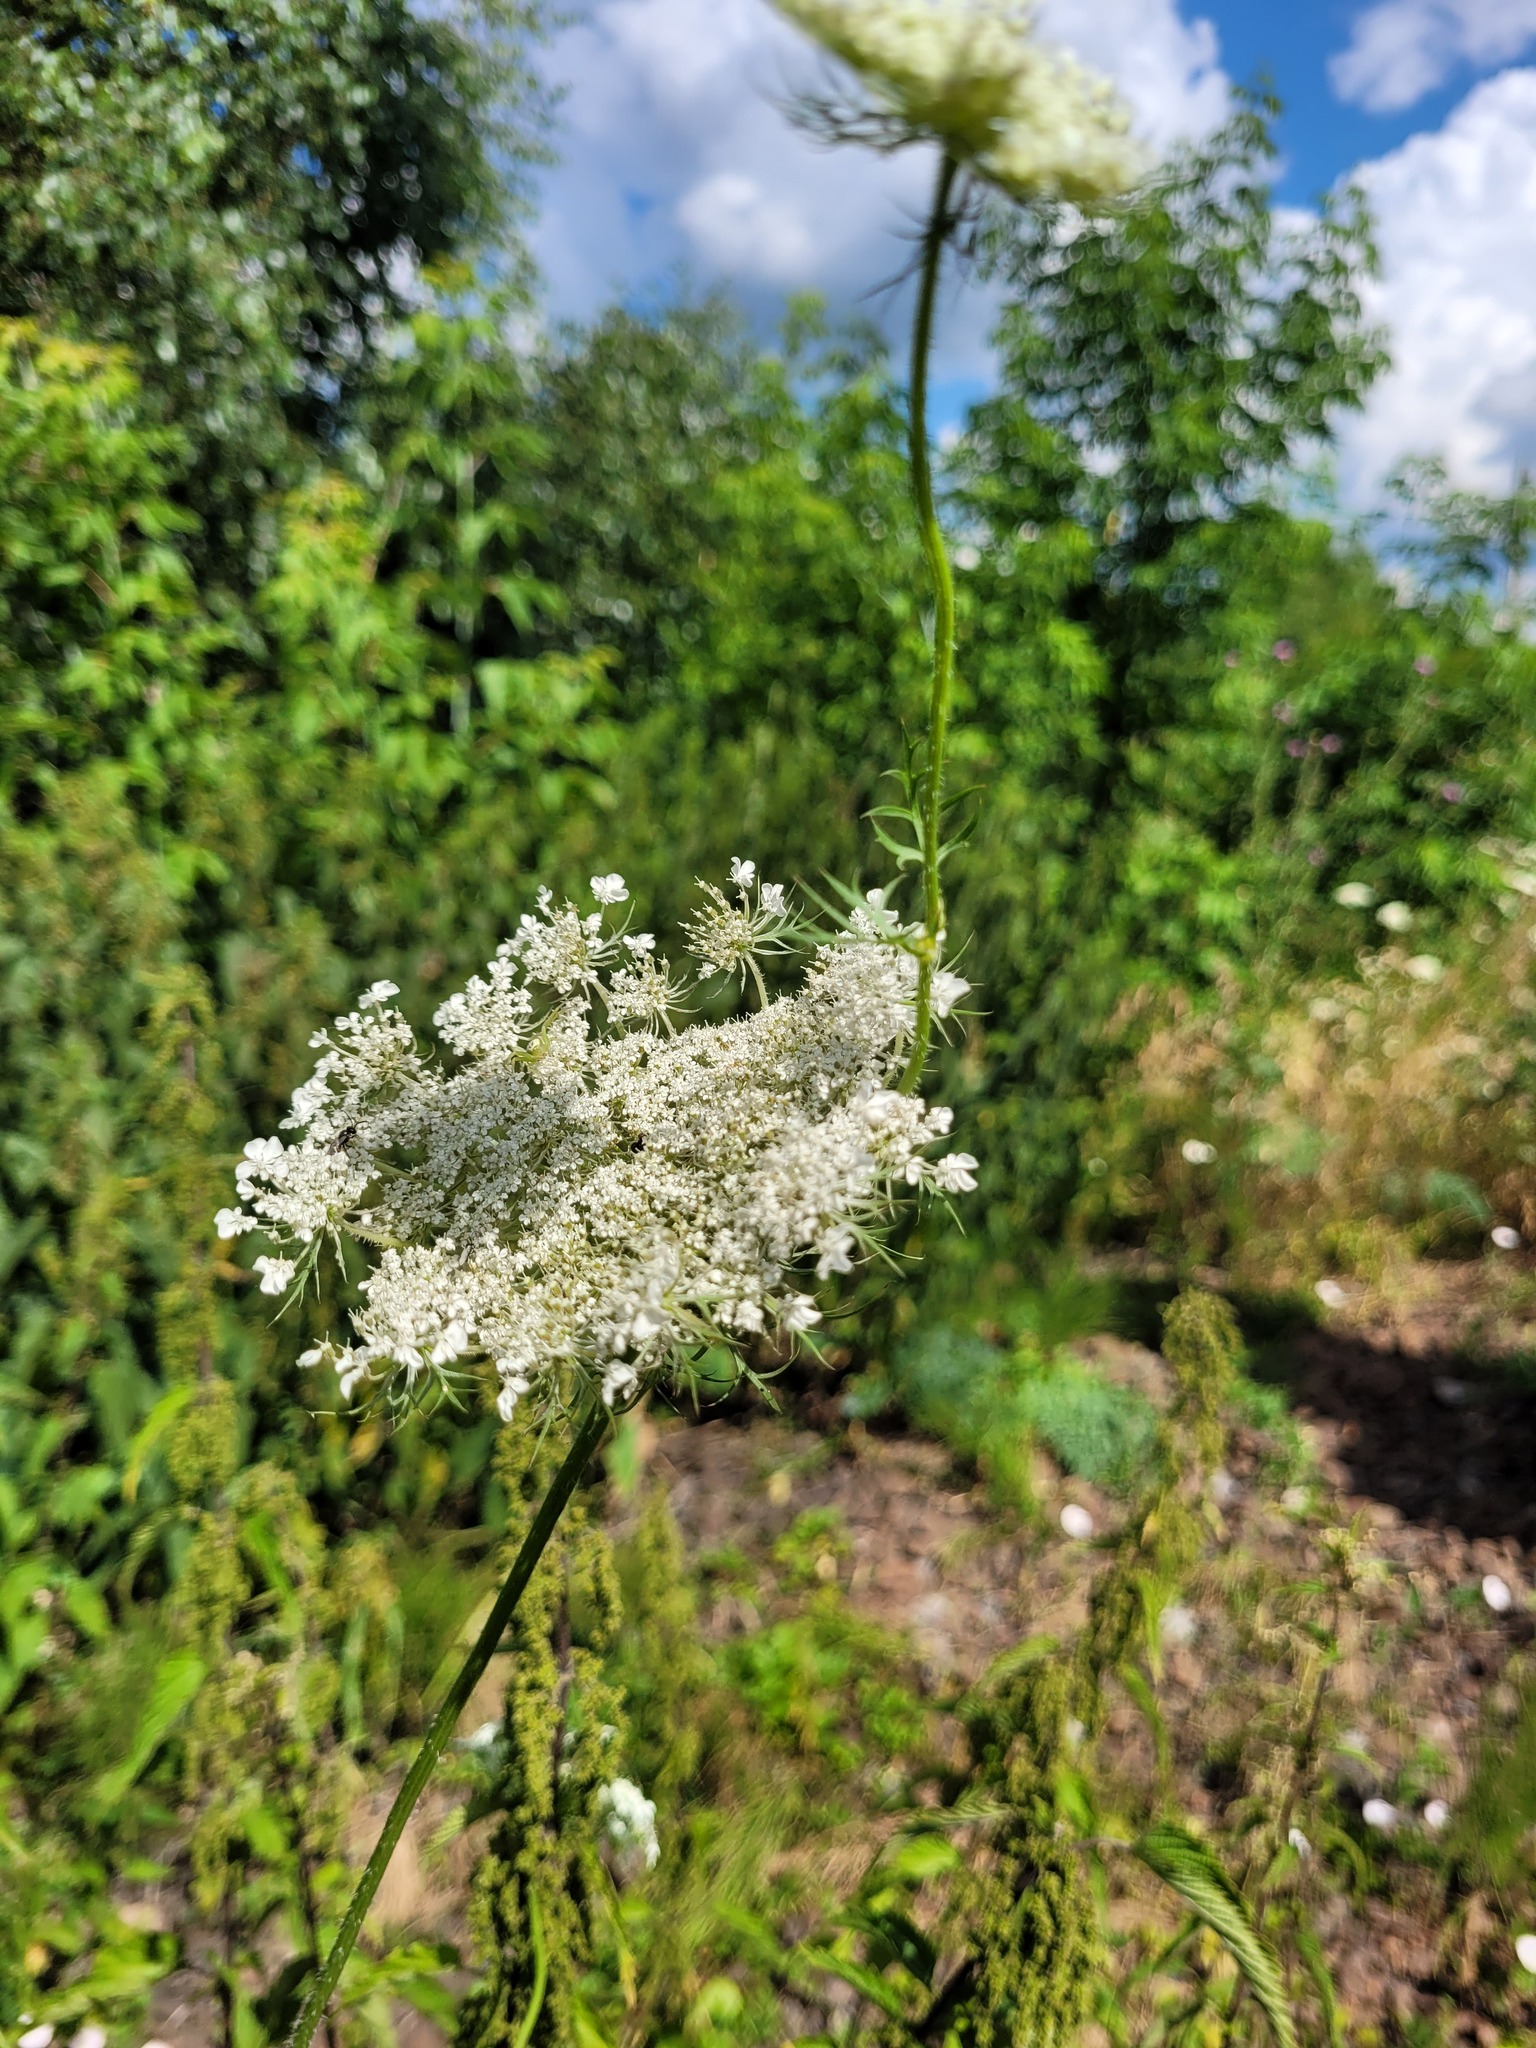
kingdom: Plantae
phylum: Tracheophyta
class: Magnoliopsida
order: Apiales
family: Apiaceae
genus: Daucus
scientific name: Daucus carota
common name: Wild carrot
